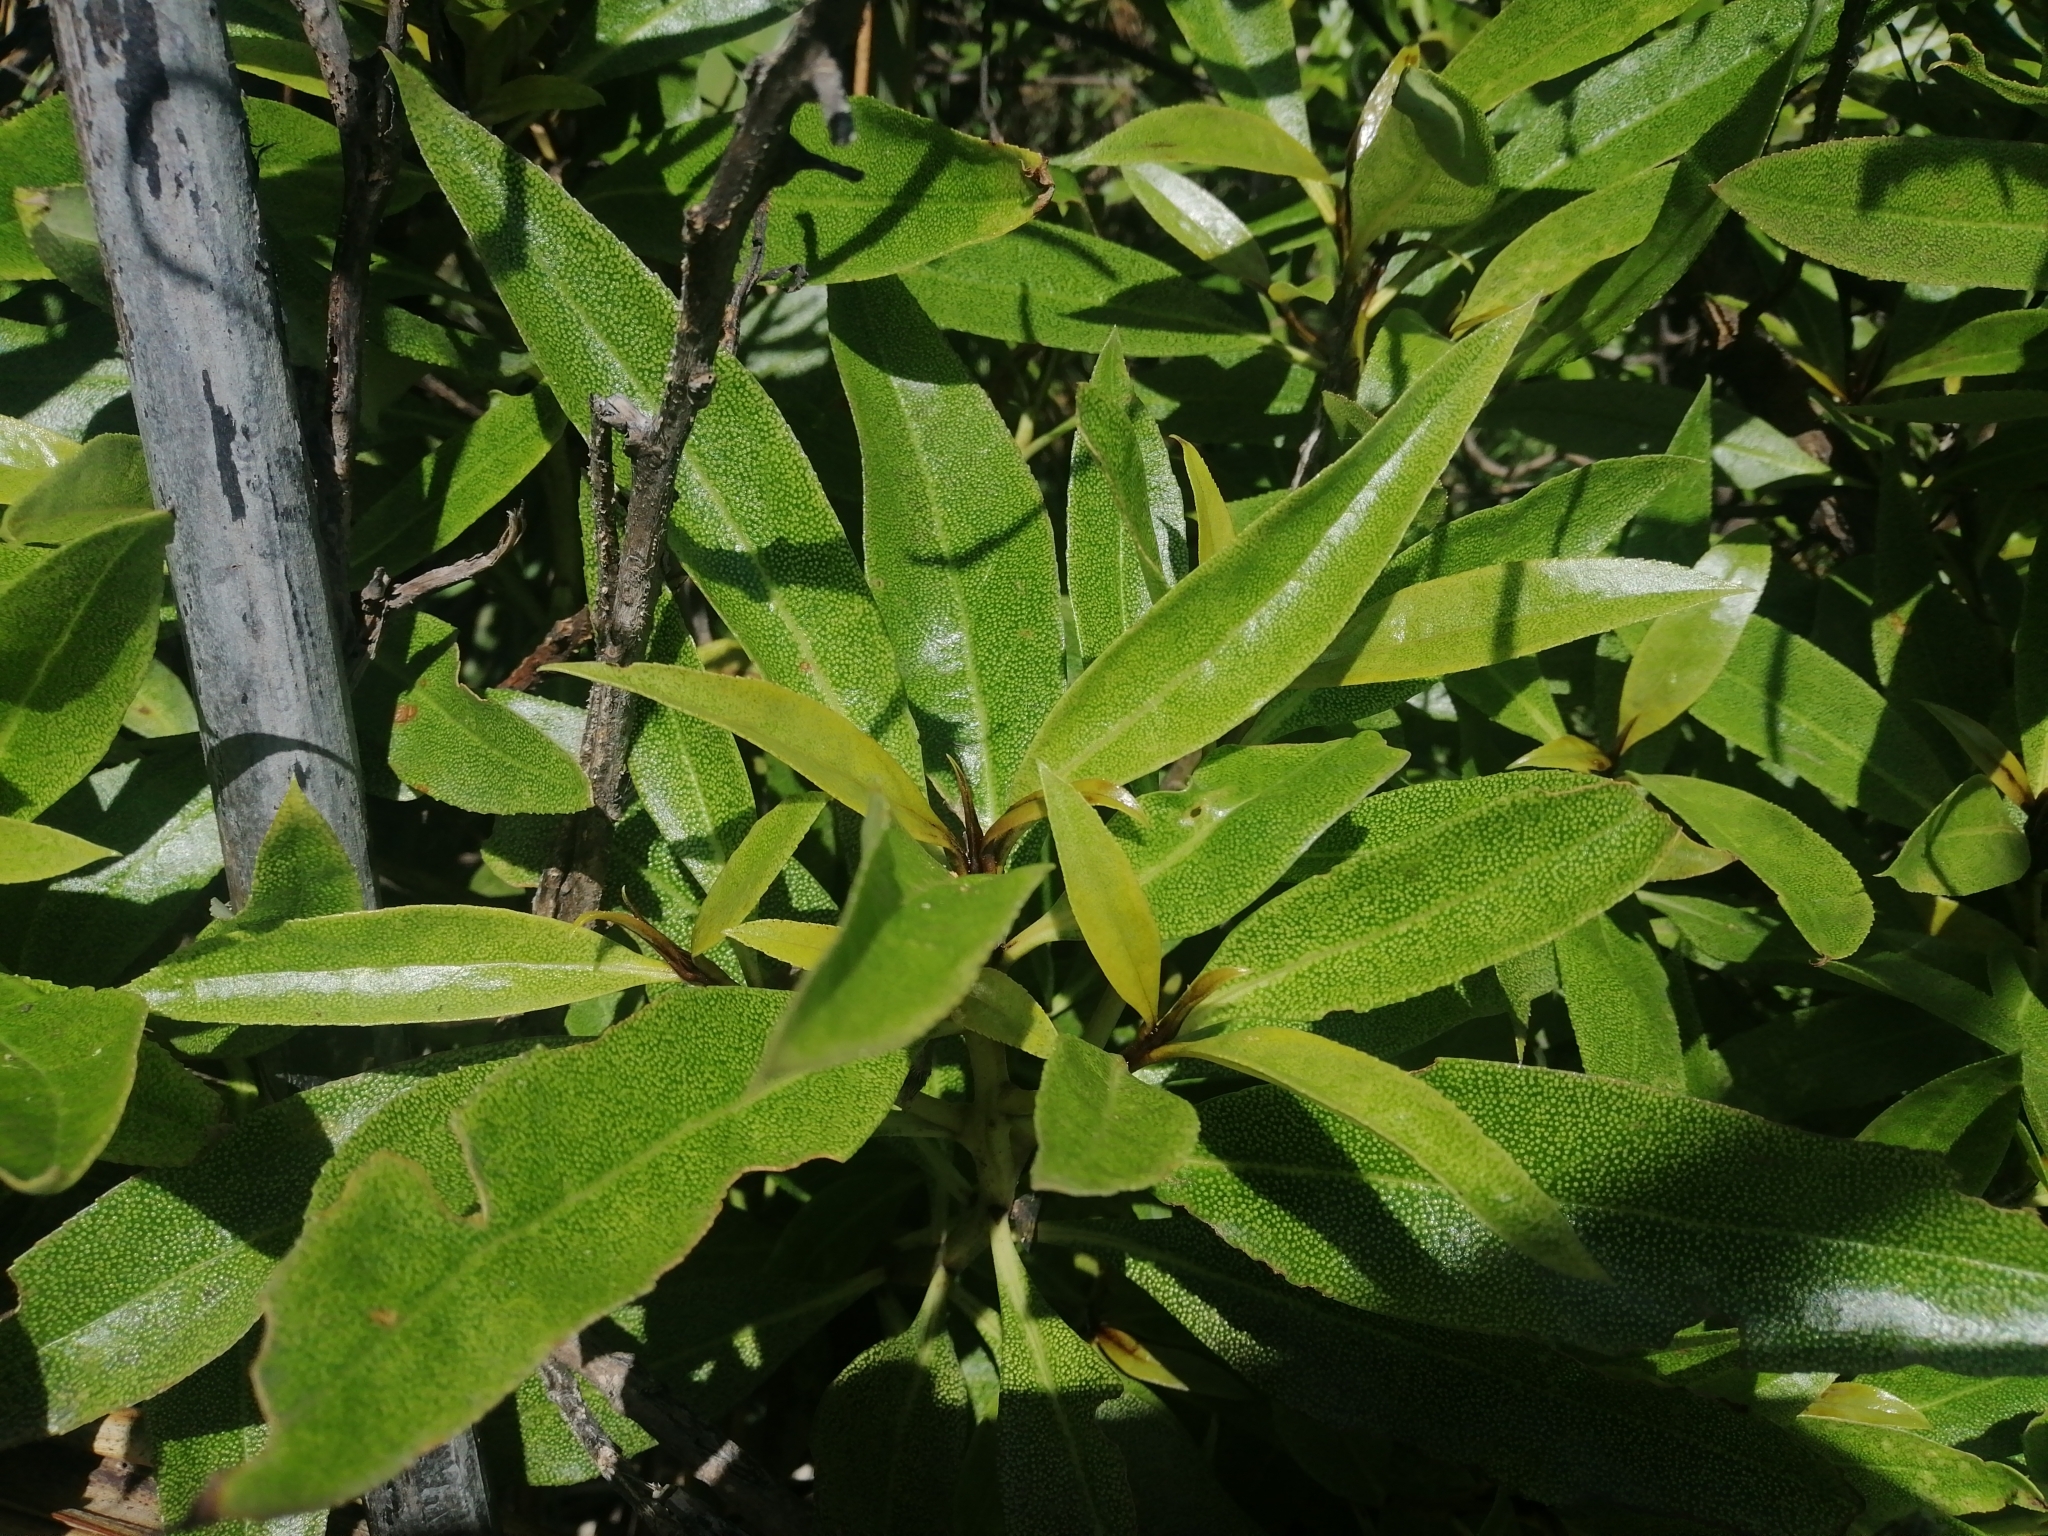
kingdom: Plantae
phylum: Tracheophyta
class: Magnoliopsida
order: Lamiales
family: Scrophulariaceae
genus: Myoporum
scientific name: Myoporum laetum
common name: Ngaio tree
